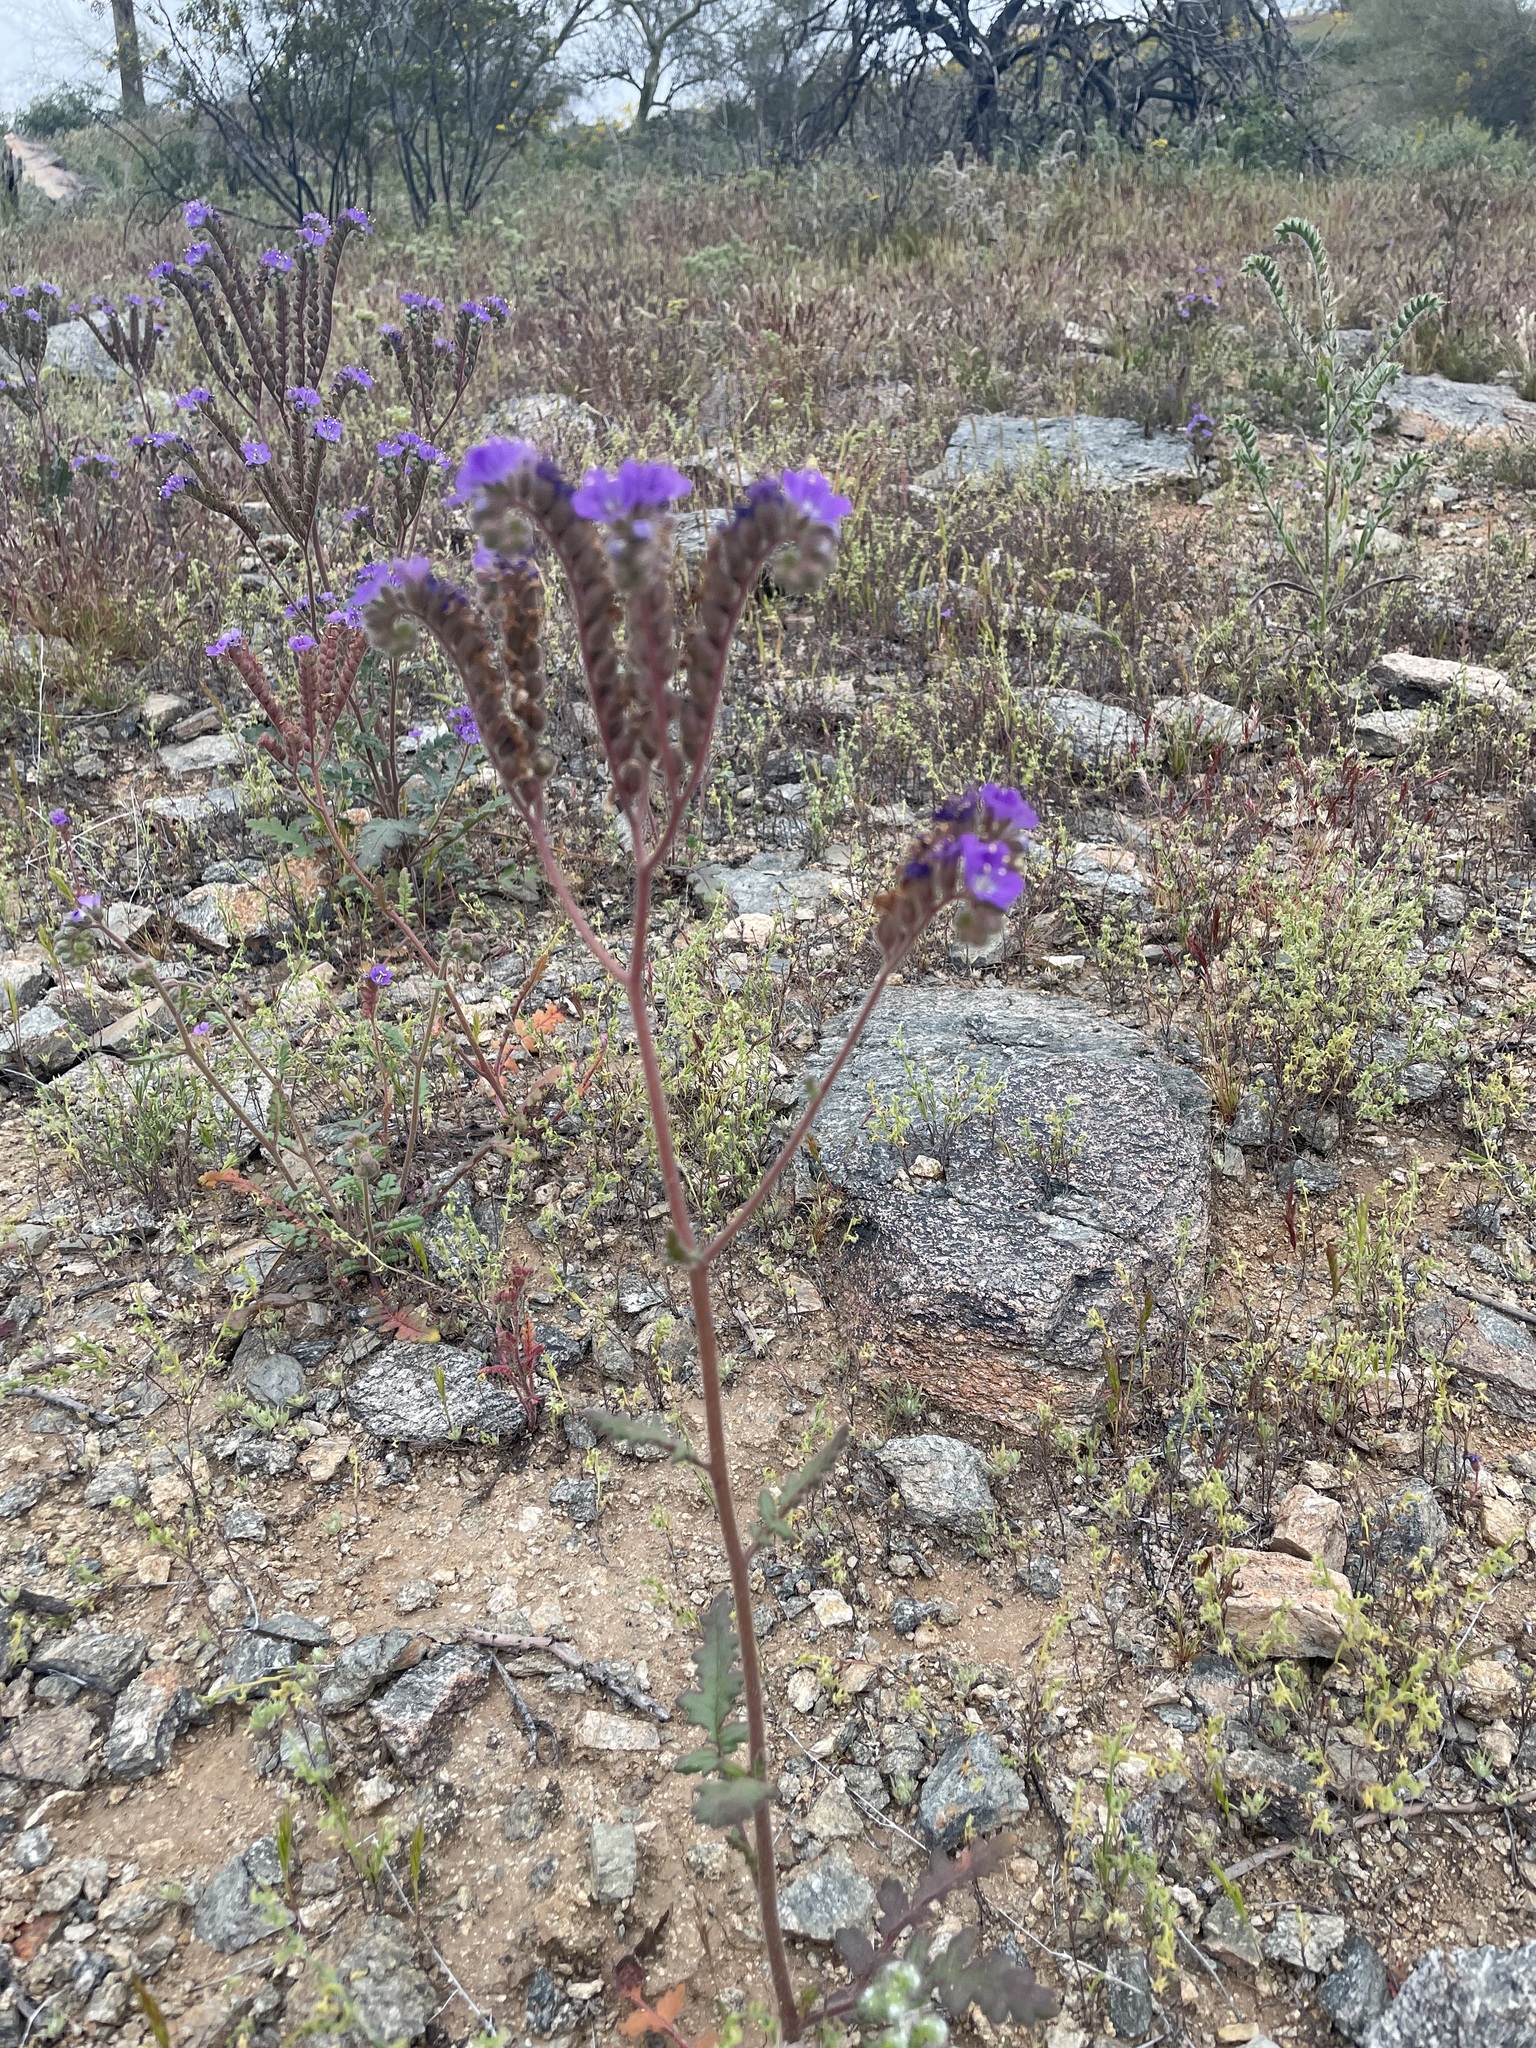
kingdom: Plantae
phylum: Tracheophyta
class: Magnoliopsida
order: Boraginales
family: Hydrophyllaceae
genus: Phacelia
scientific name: Phacelia crenulata
